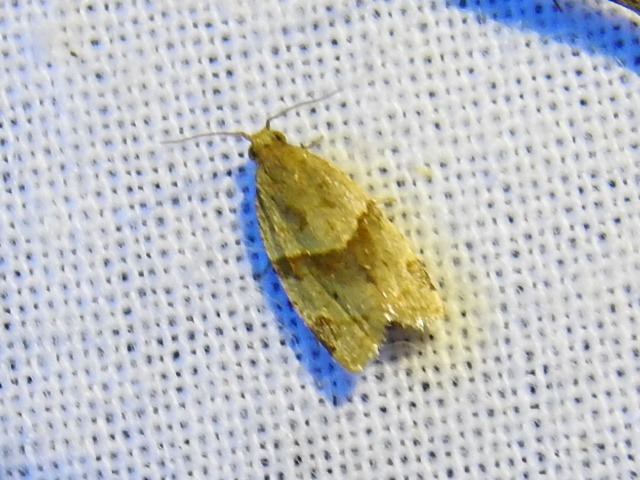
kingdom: Animalia
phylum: Arthropoda
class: Insecta
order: Lepidoptera
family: Tortricidae
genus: Clepsis
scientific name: Clepsis peritana
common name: Garden tortrix
